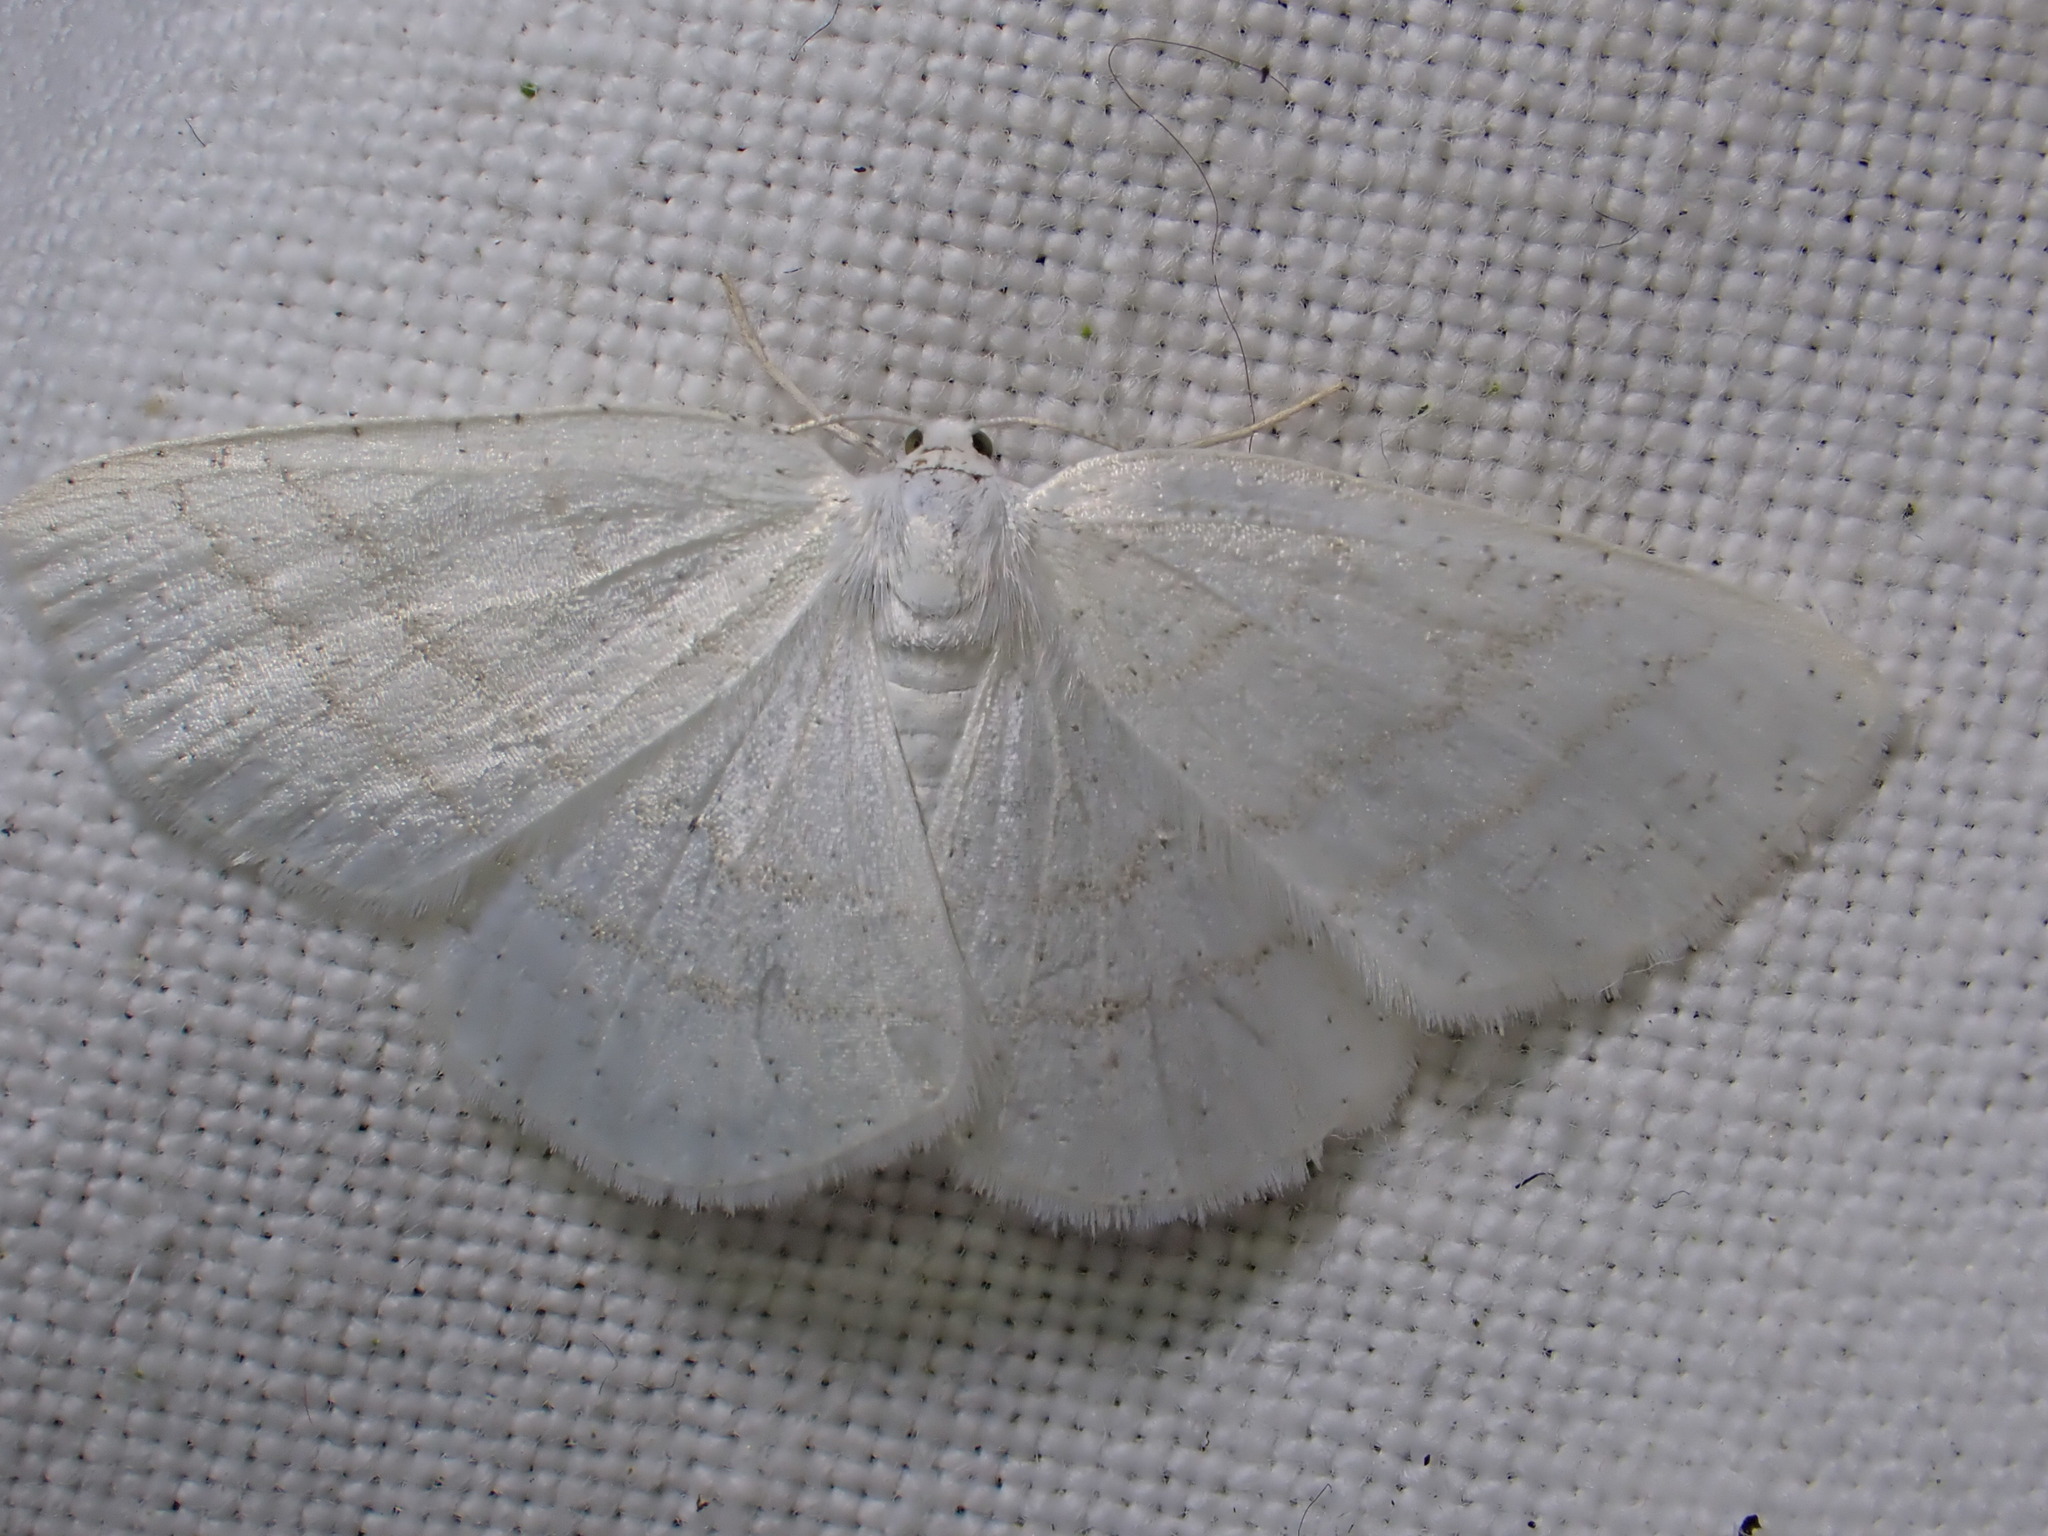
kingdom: Animalia
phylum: Arthropoda
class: Insecta
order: Lepidoptera
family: Geometridae
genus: Cabera
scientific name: Cabera pusaria
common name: Common white wave
